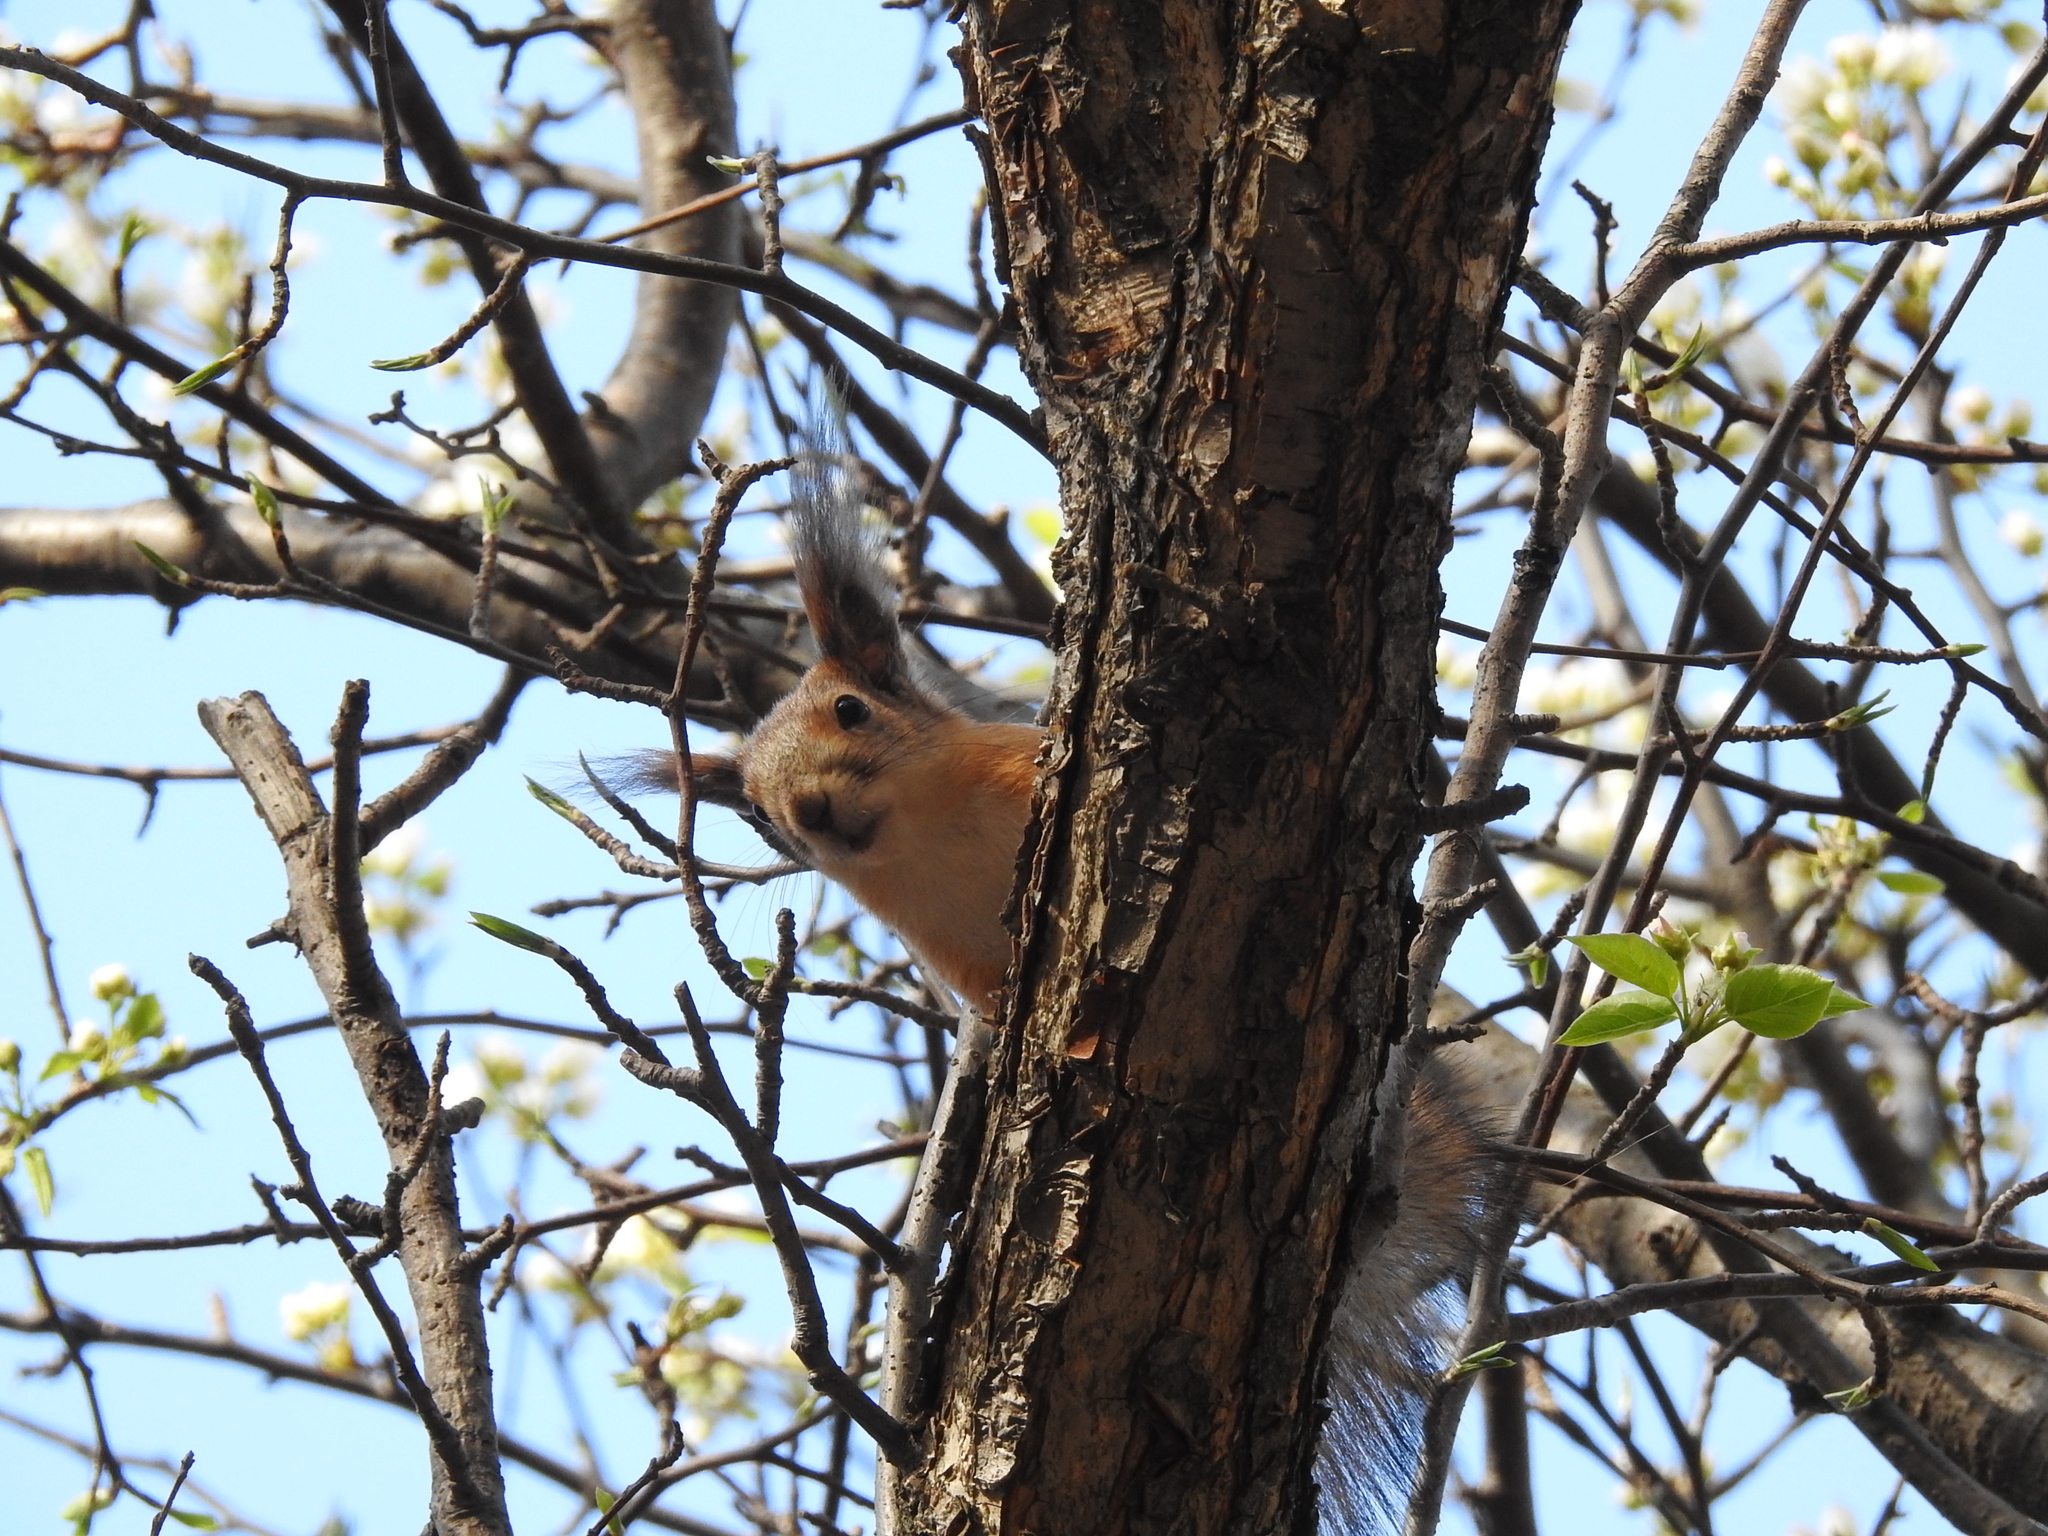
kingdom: Animalia
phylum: Chordata
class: Mammalia
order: Rodentia
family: Sciuridae
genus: Sciurus
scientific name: Sciurus vulgaris
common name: Eurasian red squirrel
